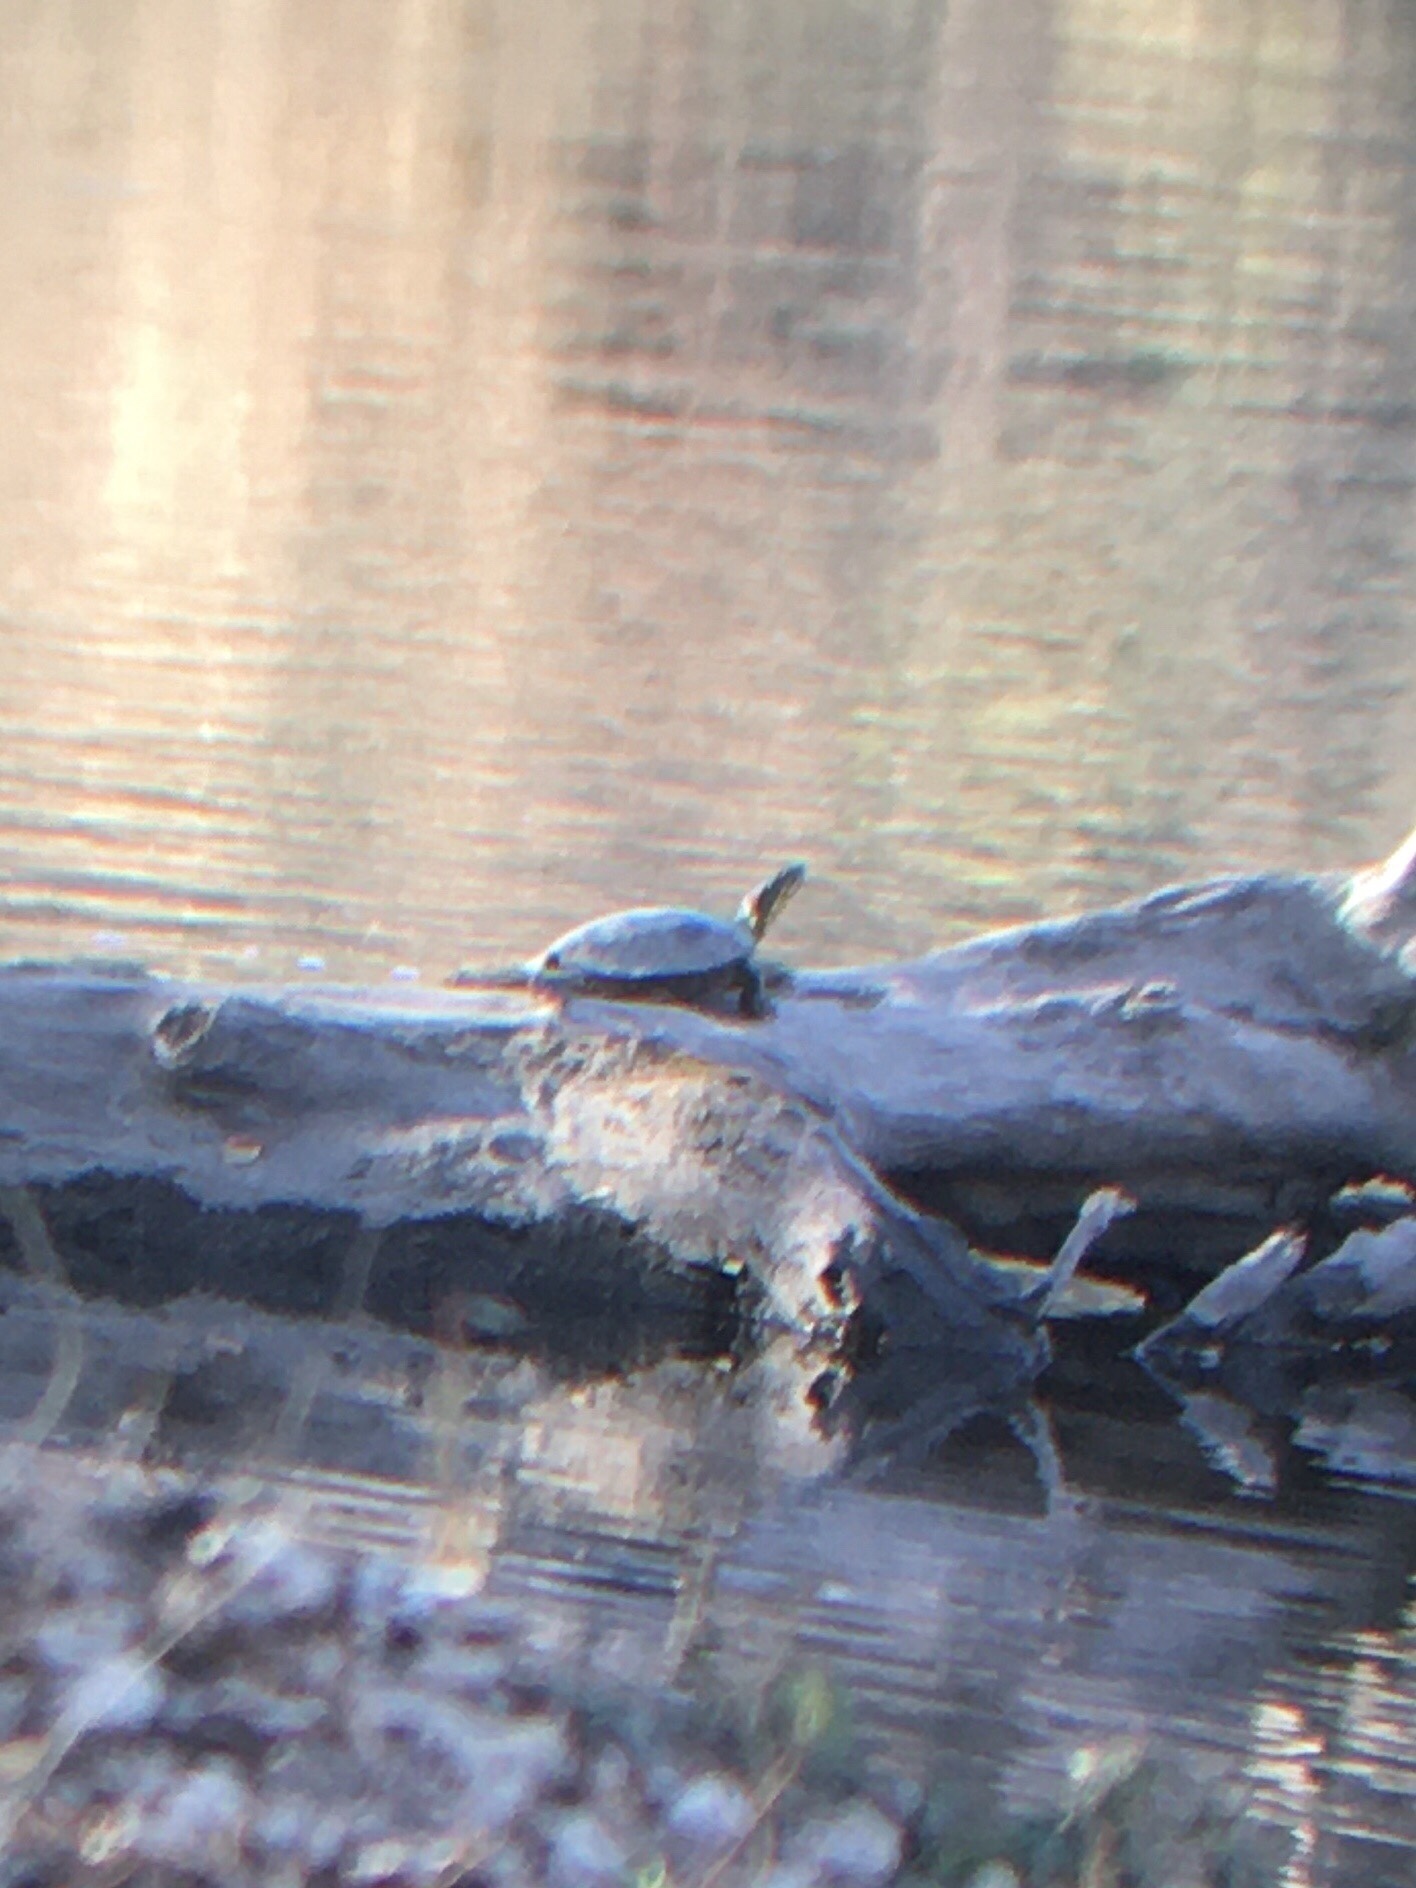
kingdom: Animalia
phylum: Chordata
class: Testudines
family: Emydidae
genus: Chrysemys
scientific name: Chrysemys picta
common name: Painted turtle
